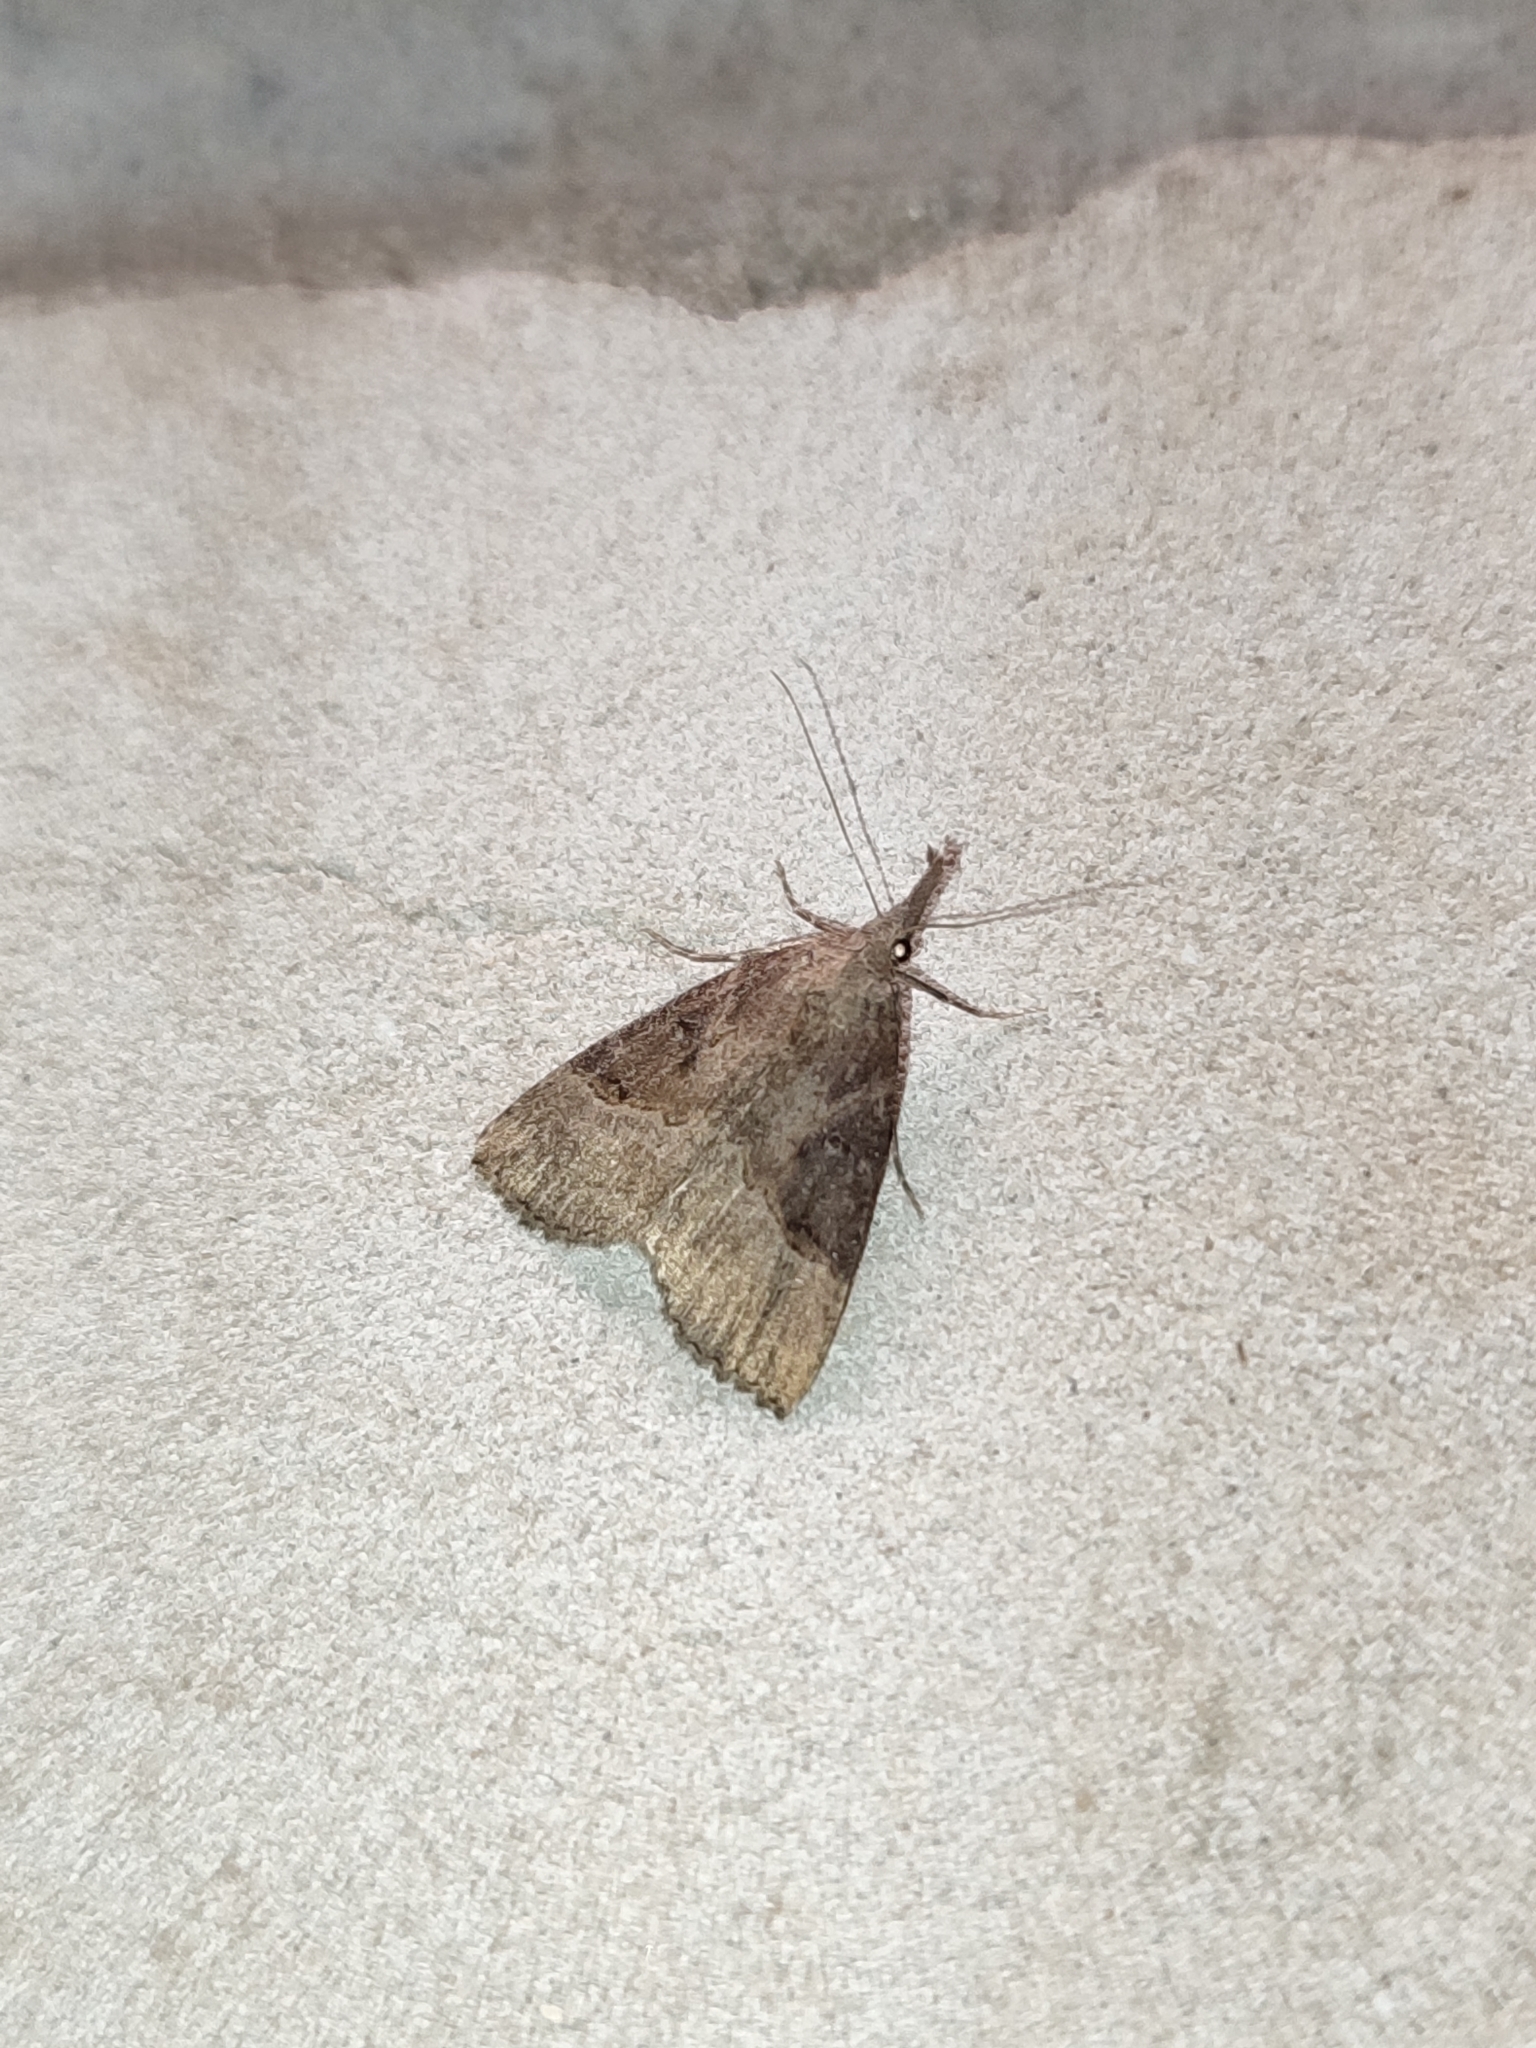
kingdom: Animalia
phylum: Arthropoda
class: Insecta
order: Lepidoptera
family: Erebidae
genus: Hypena
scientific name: Hypena rostralis
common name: Buttoned snout
